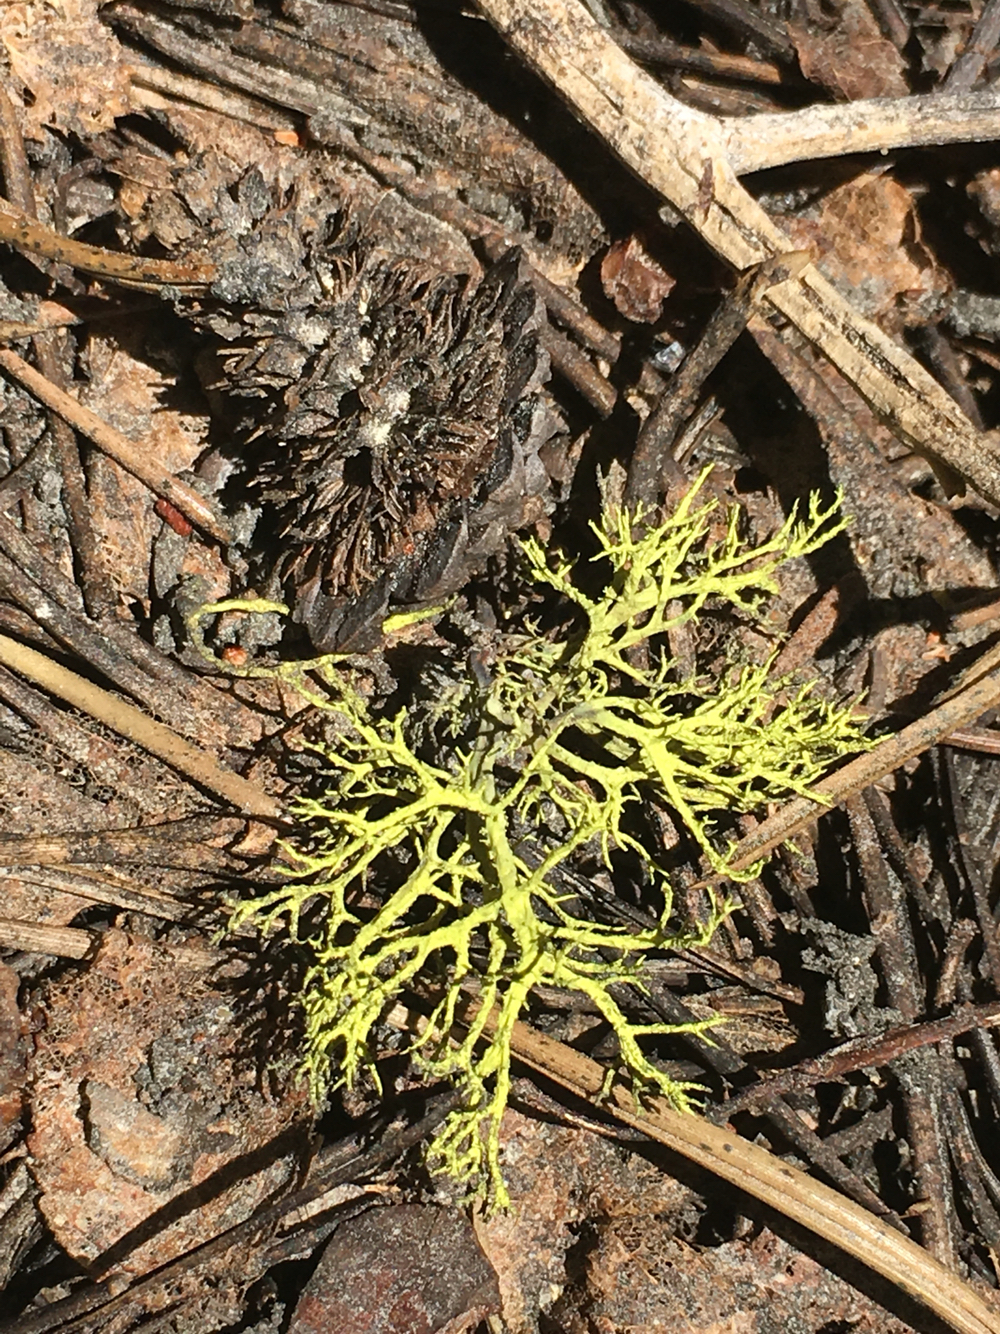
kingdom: Fungi
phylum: Ascomycota
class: Lecanoromycetes
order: Lecanorales
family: Parmeliaceae
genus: Letharia
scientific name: Letharia vulpina
